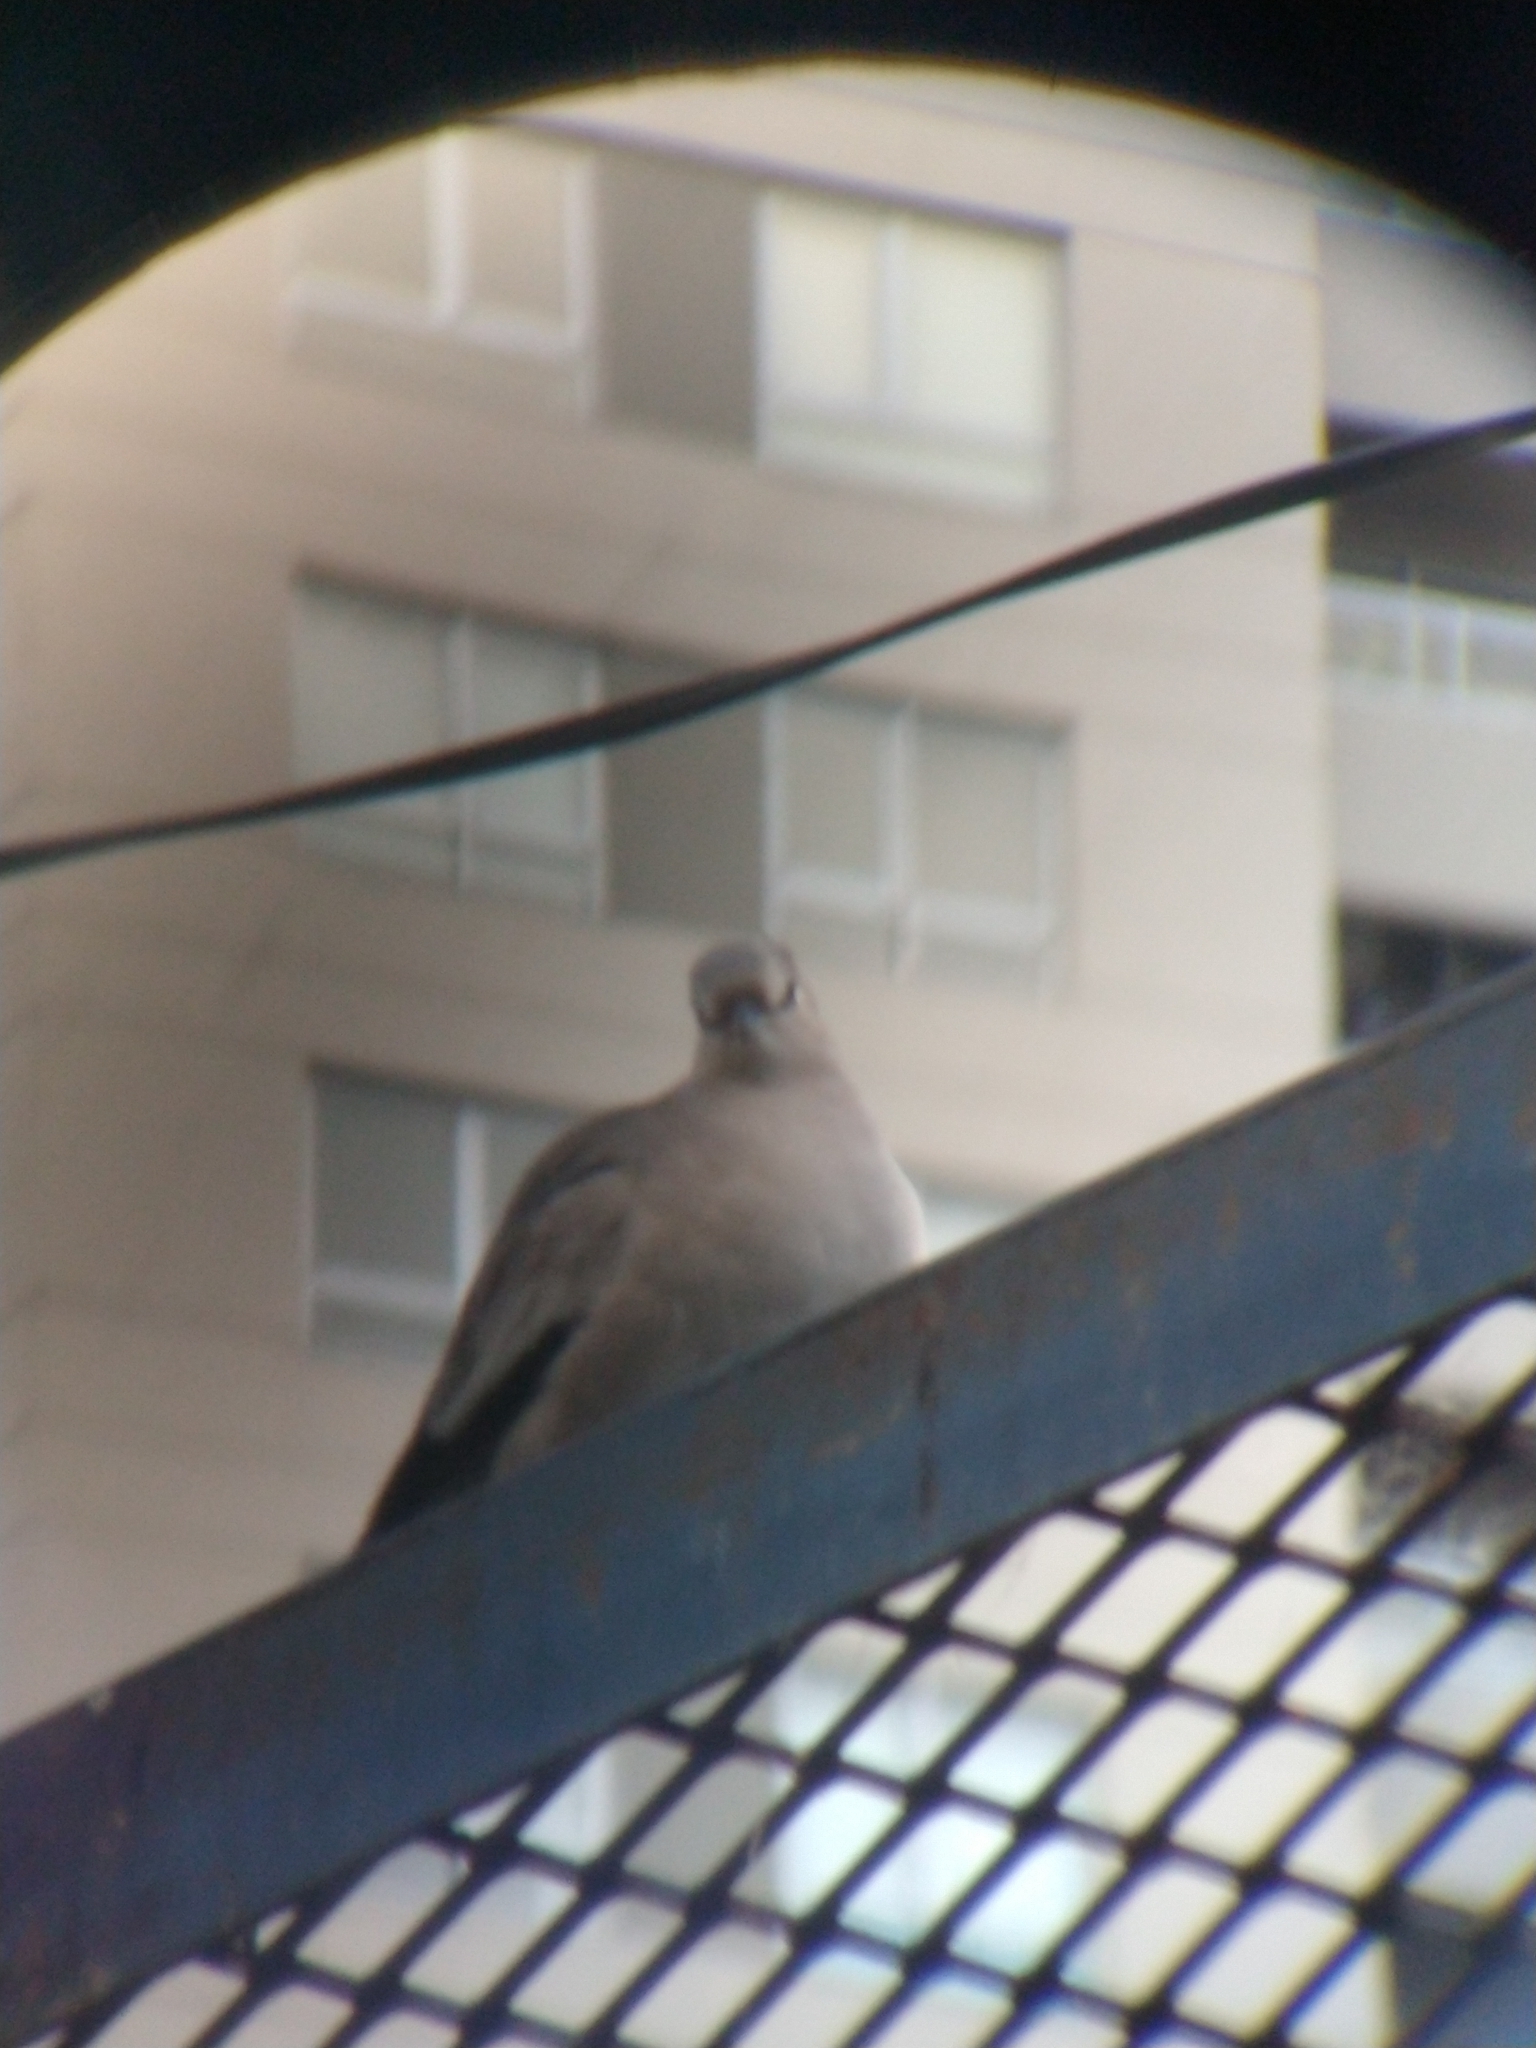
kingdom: Animalia
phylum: Chordata
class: Aves
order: Columbiformes
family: Columbidae
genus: Columbina
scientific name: Columbina picui
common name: Picui ground dove
